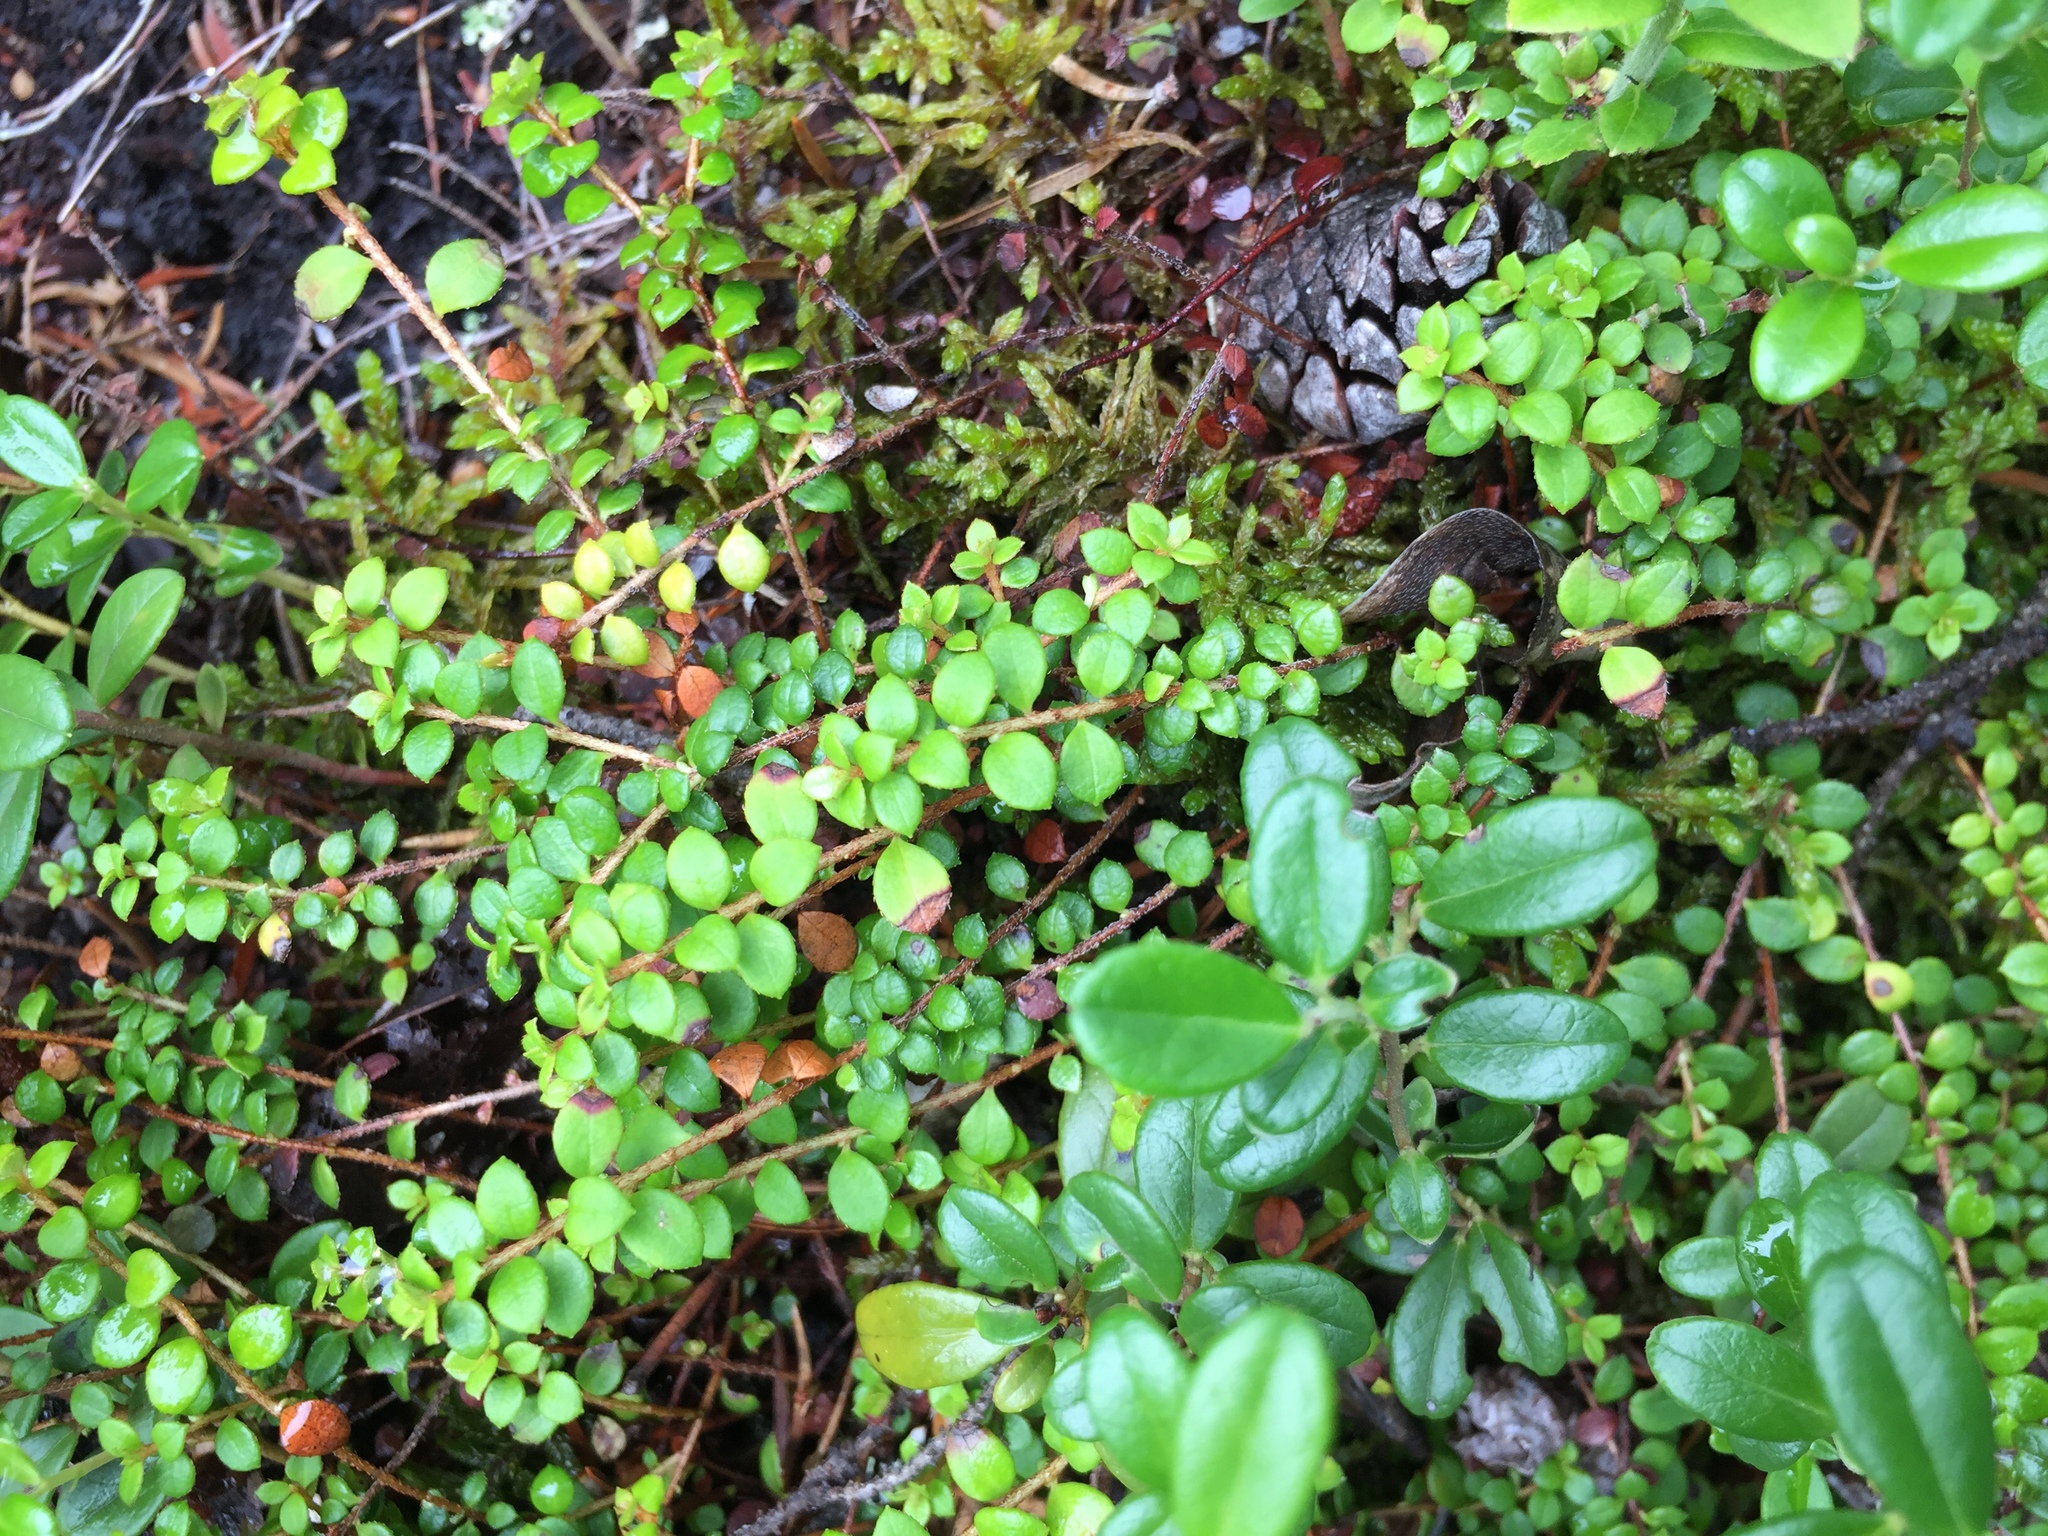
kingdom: Plantae
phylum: Tracheophyta
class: Magnoliopsida
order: Ericales
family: Ericaceae
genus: Gaultheria
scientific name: Gaultheria hispidula
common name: Cancer wintergreen
